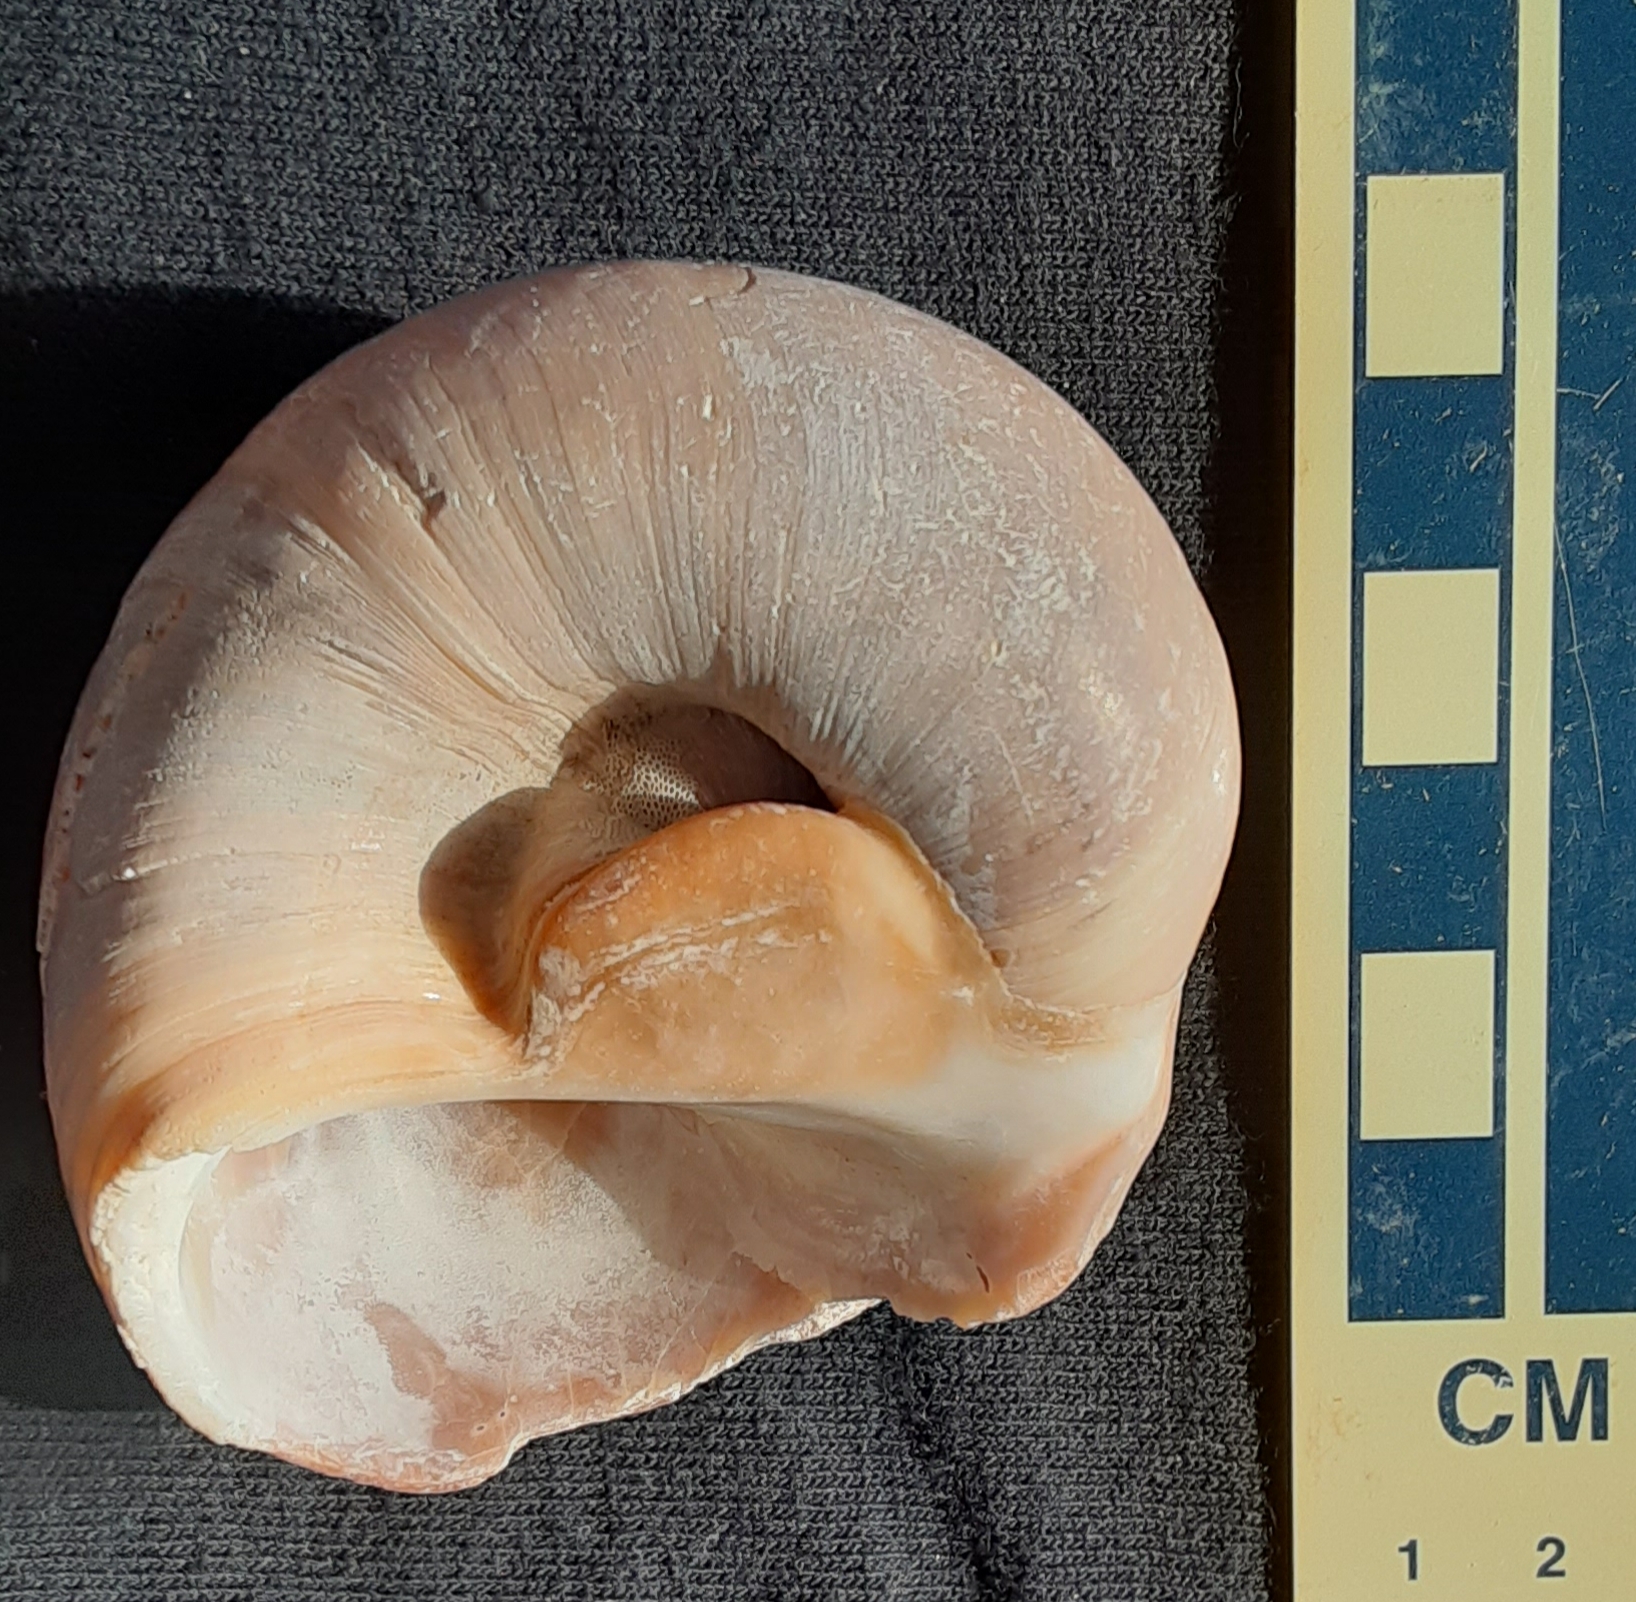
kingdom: Animalia
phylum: Mollusca
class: Gastropoda
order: Littorinimorpha
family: Naticidae
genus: Neverita
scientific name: Neverita duplicata
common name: Lobed moonsnail
